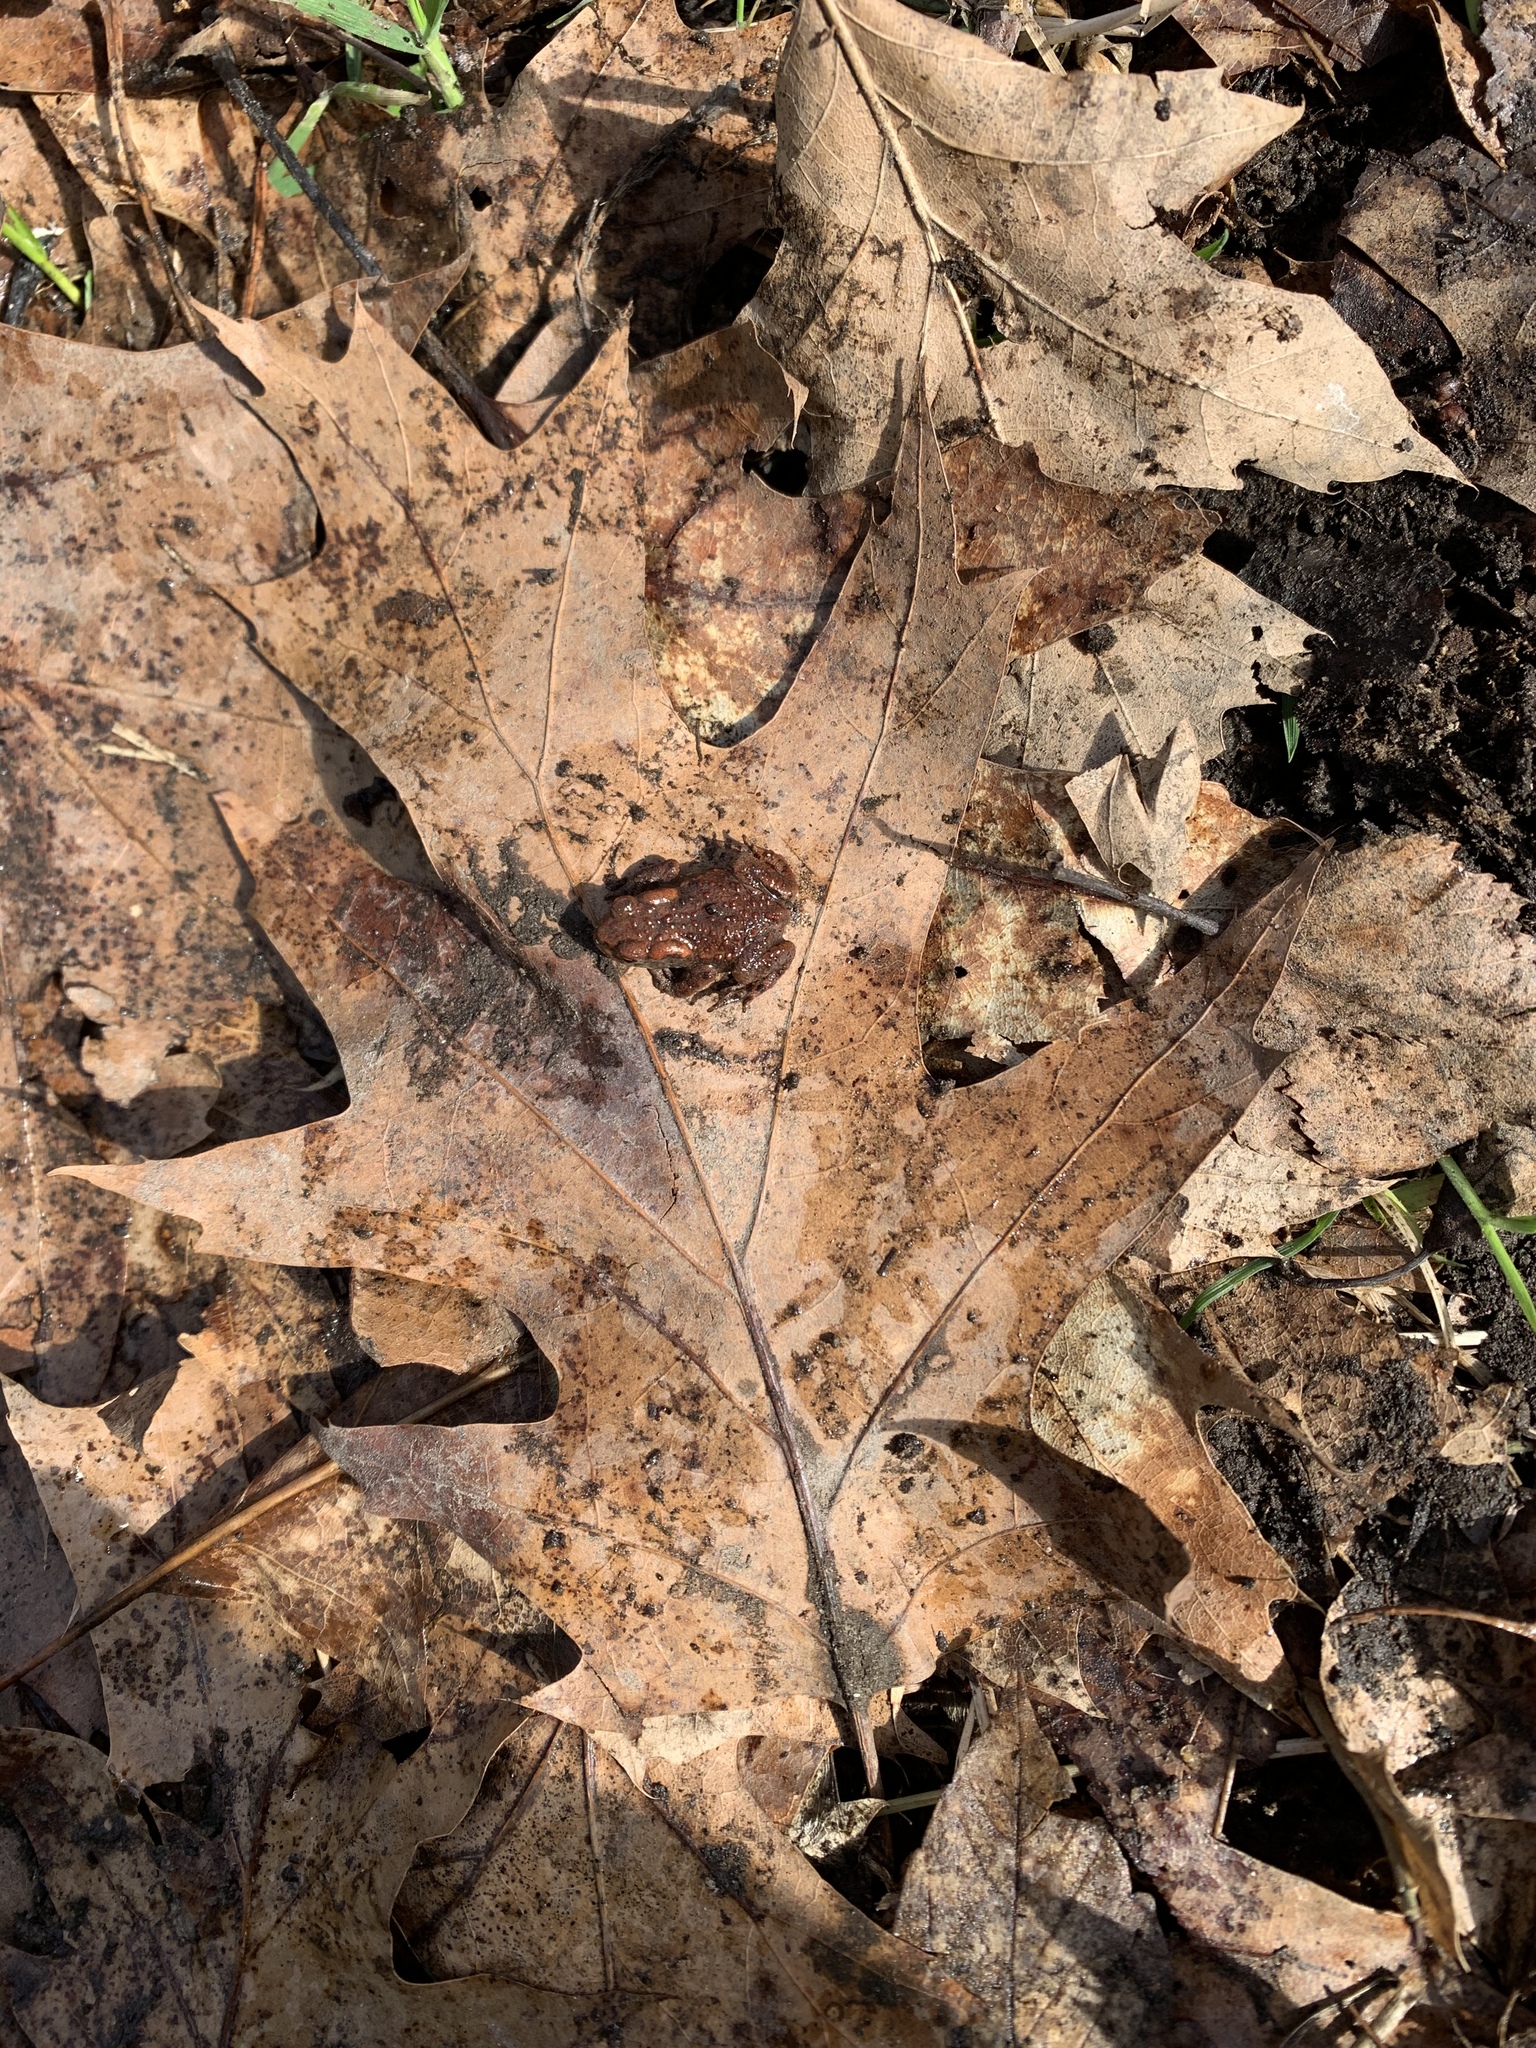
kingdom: Animalia
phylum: Chordata
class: Amphibia
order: Anura
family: Bufonidae
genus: Bufo
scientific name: Bufo bufo
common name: Common toad
